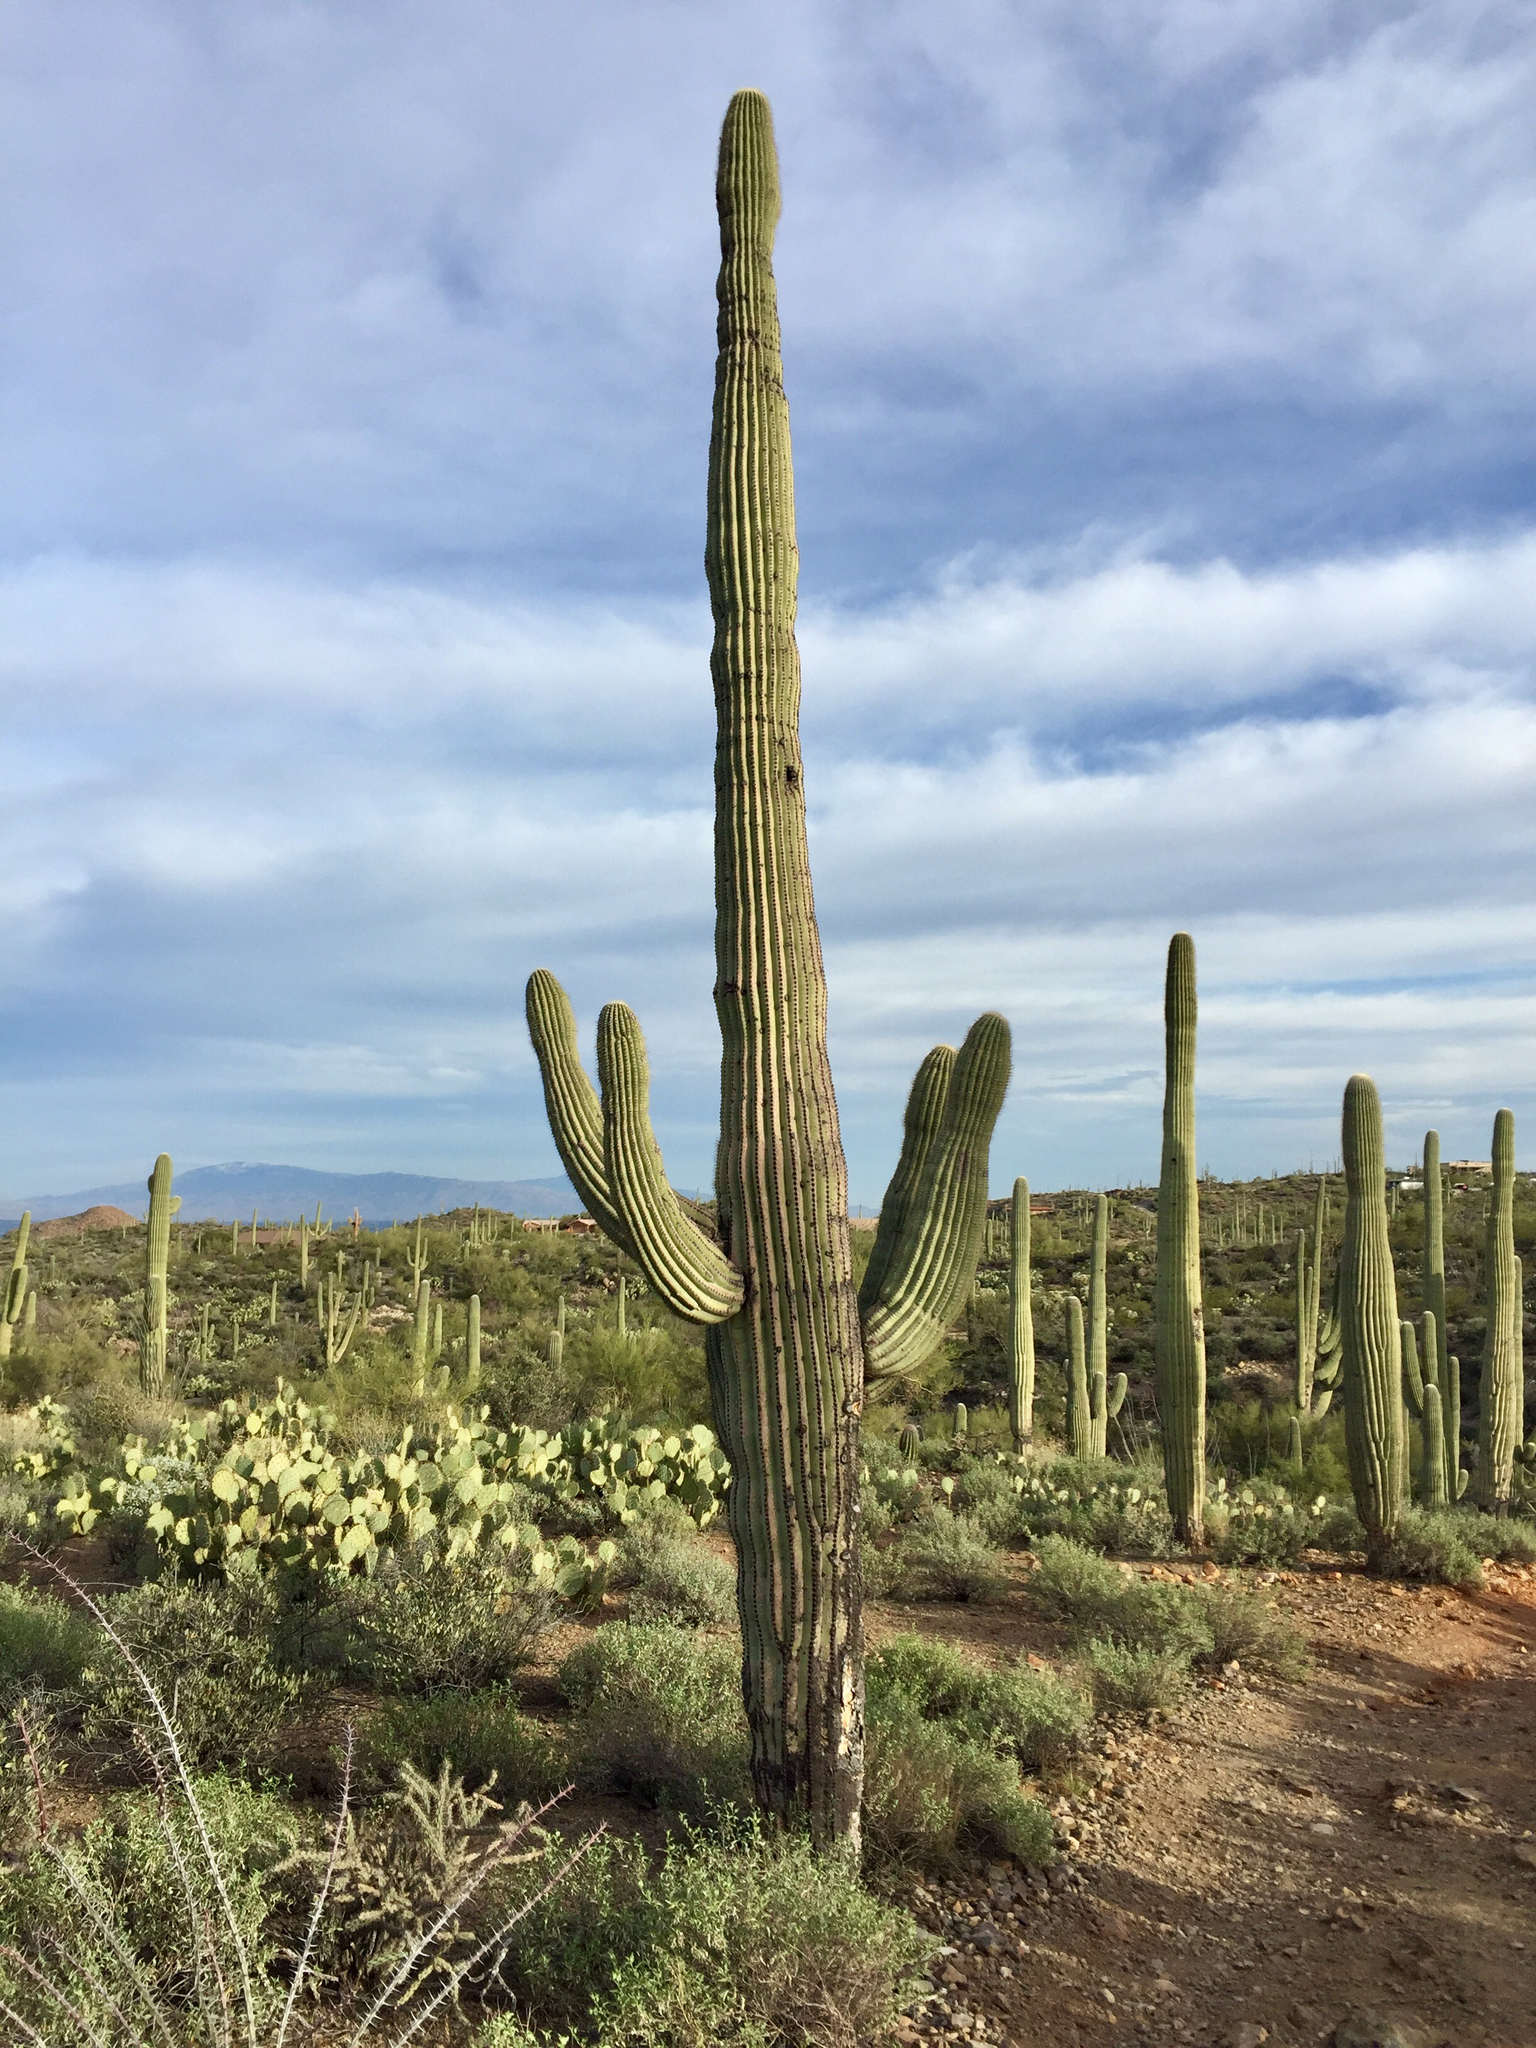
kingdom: Plantae
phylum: Tracheophyta
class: Magnoliopsida
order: Caryophyllales
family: Cactaceae
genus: Carnegiea
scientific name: Carnegiea gigantea
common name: Saguaro
